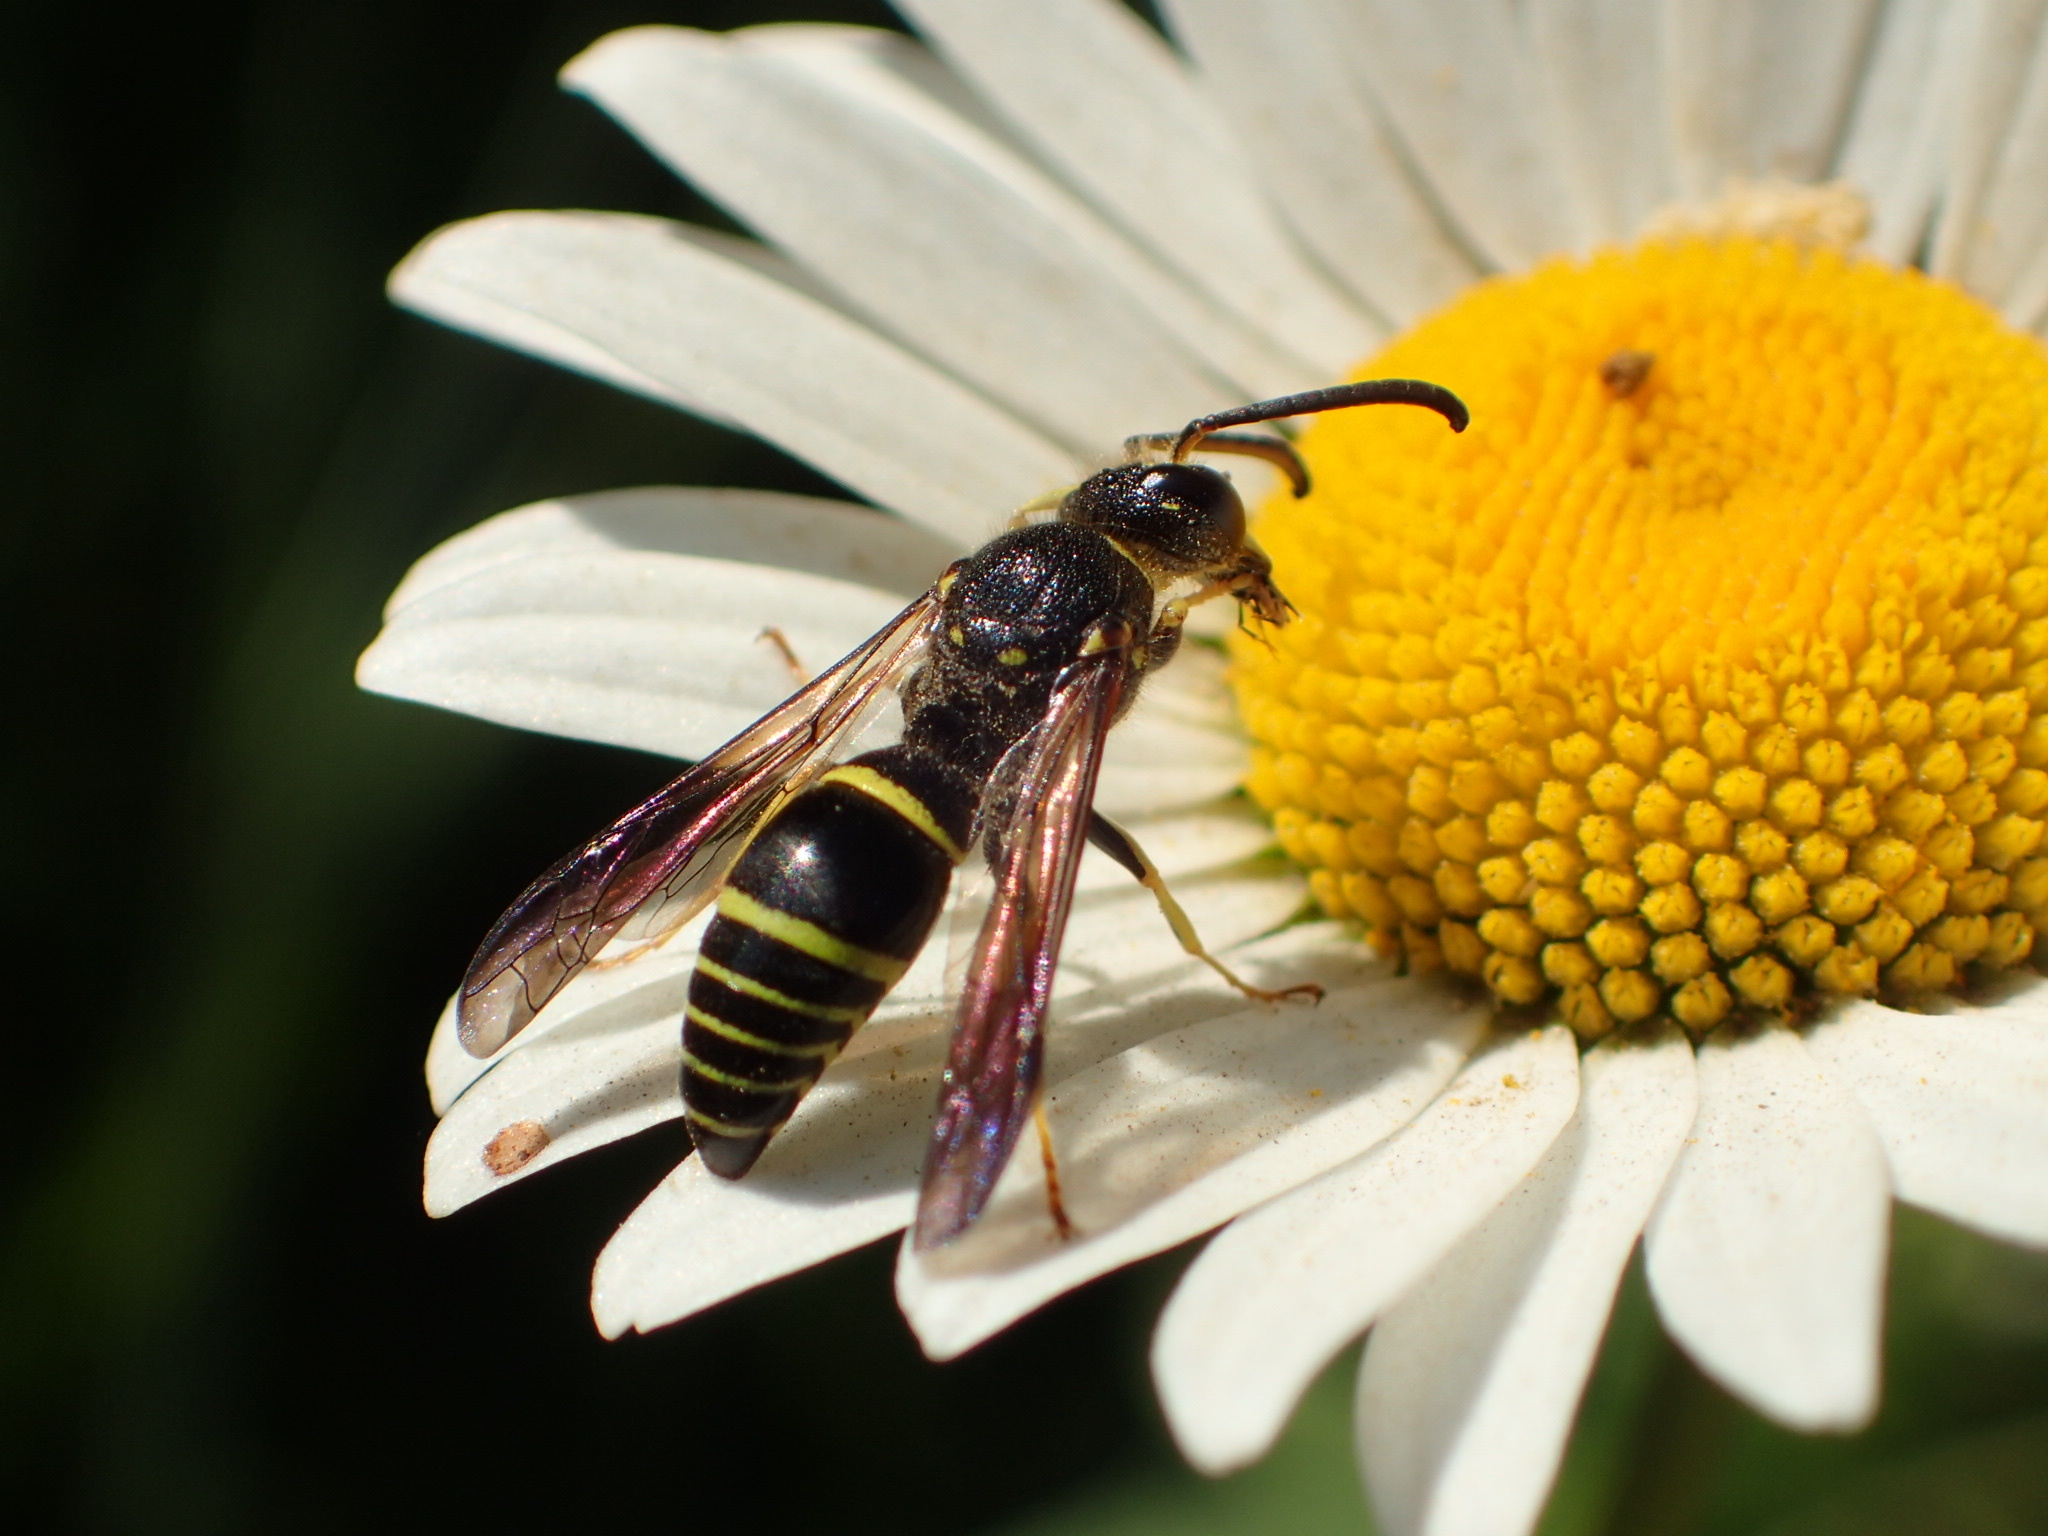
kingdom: Animalia
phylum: Arthropoda
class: Insecta
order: Hymenoptera
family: Vespidae
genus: Ancistrocerus
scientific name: Ancistrocerus
